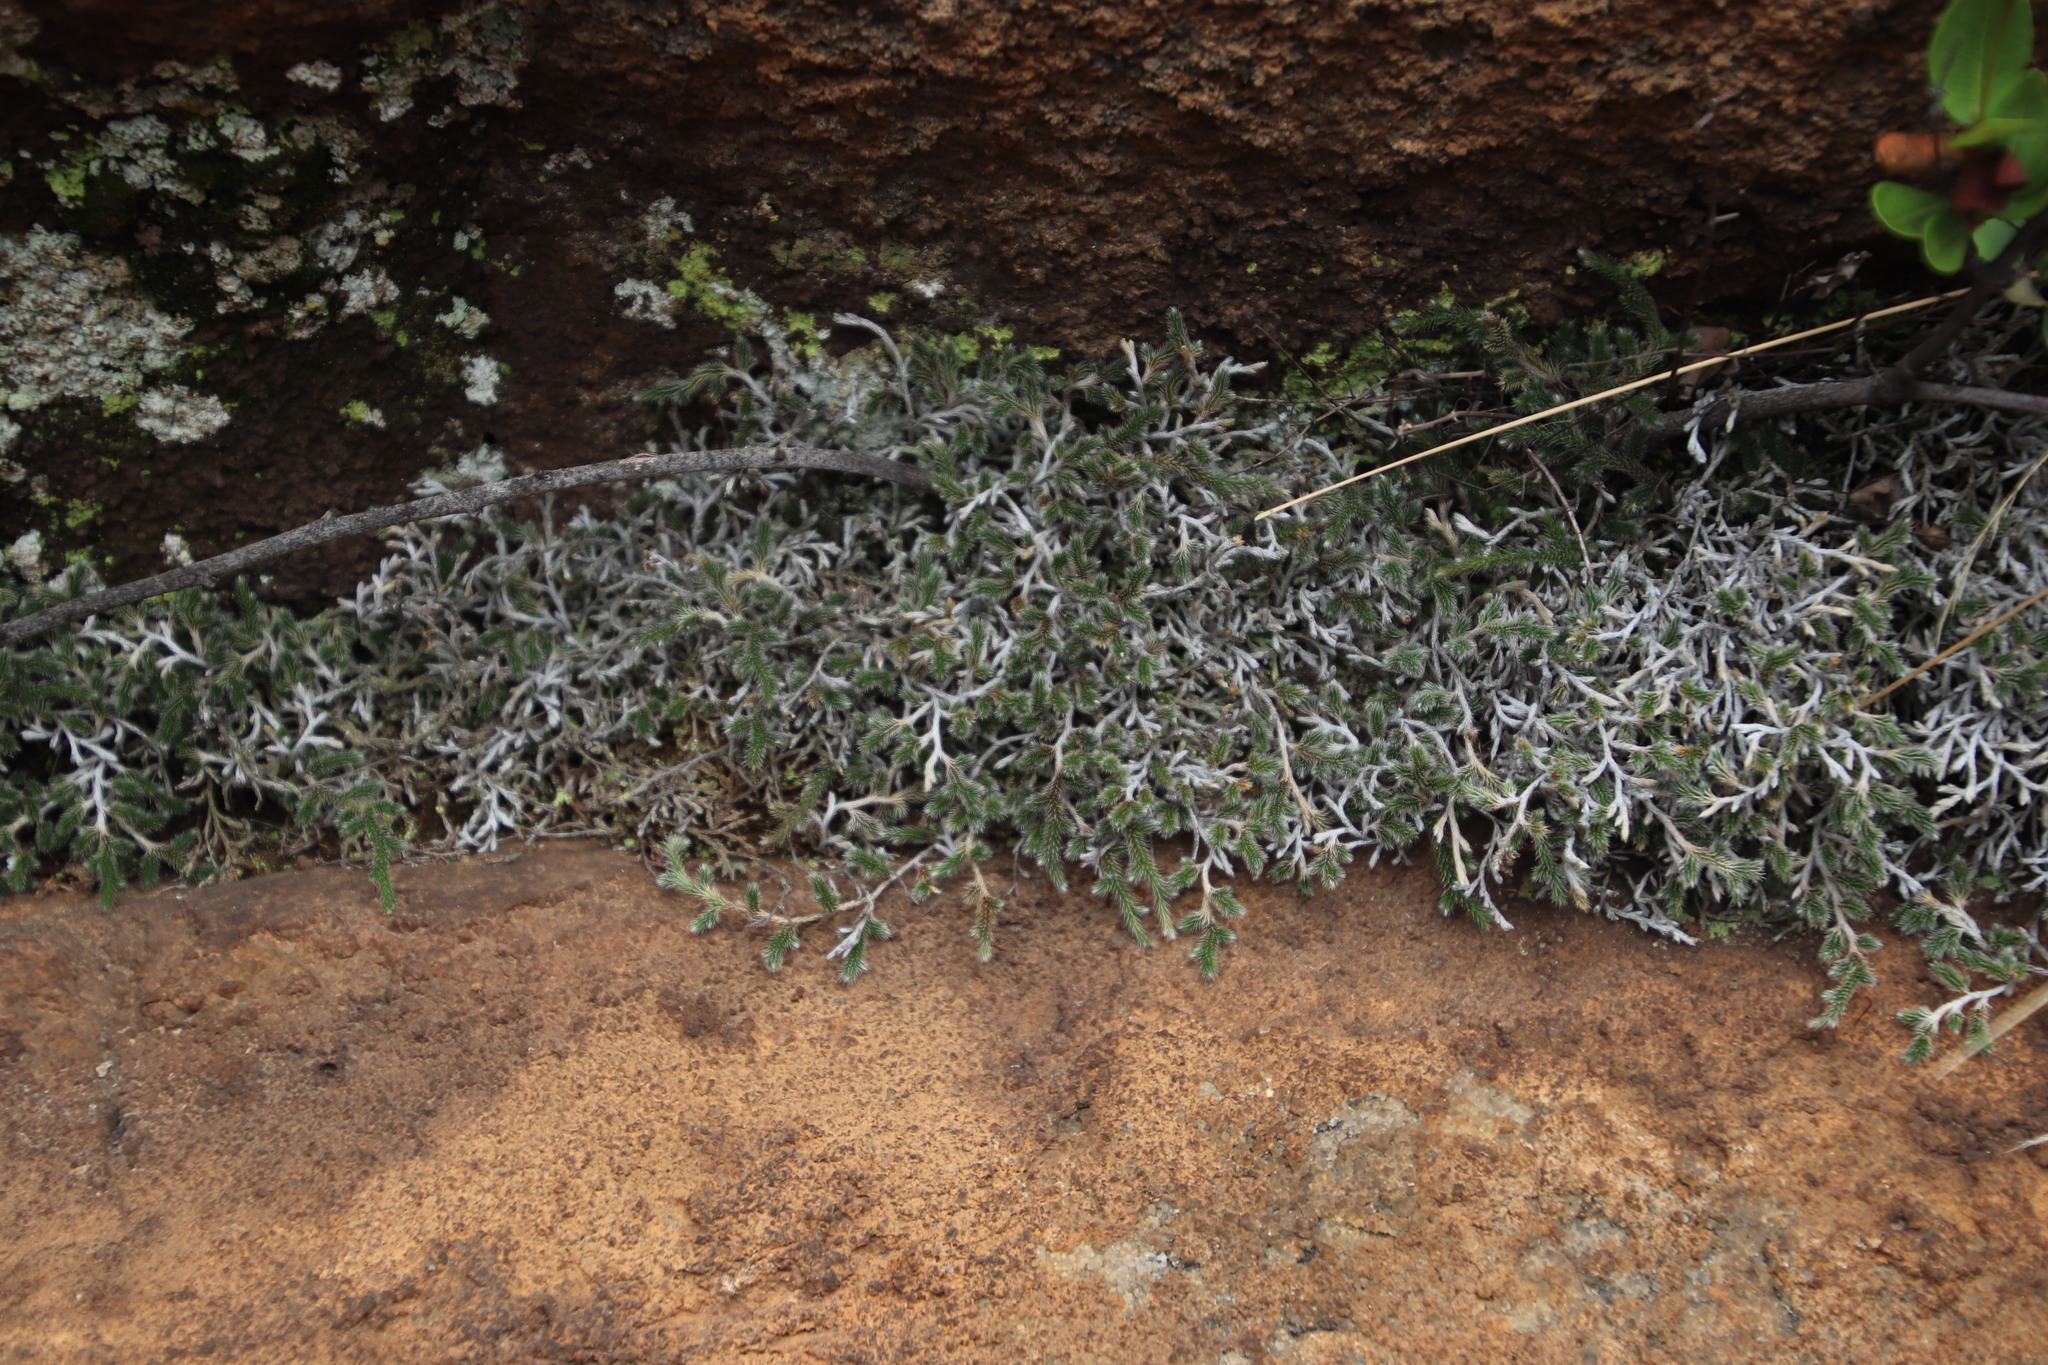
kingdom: Plantae
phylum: Tracheophyta
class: Lycopodiopsida
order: Selaginellales
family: Selaginellaceae
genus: Selaginella
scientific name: Selaginella dregei
